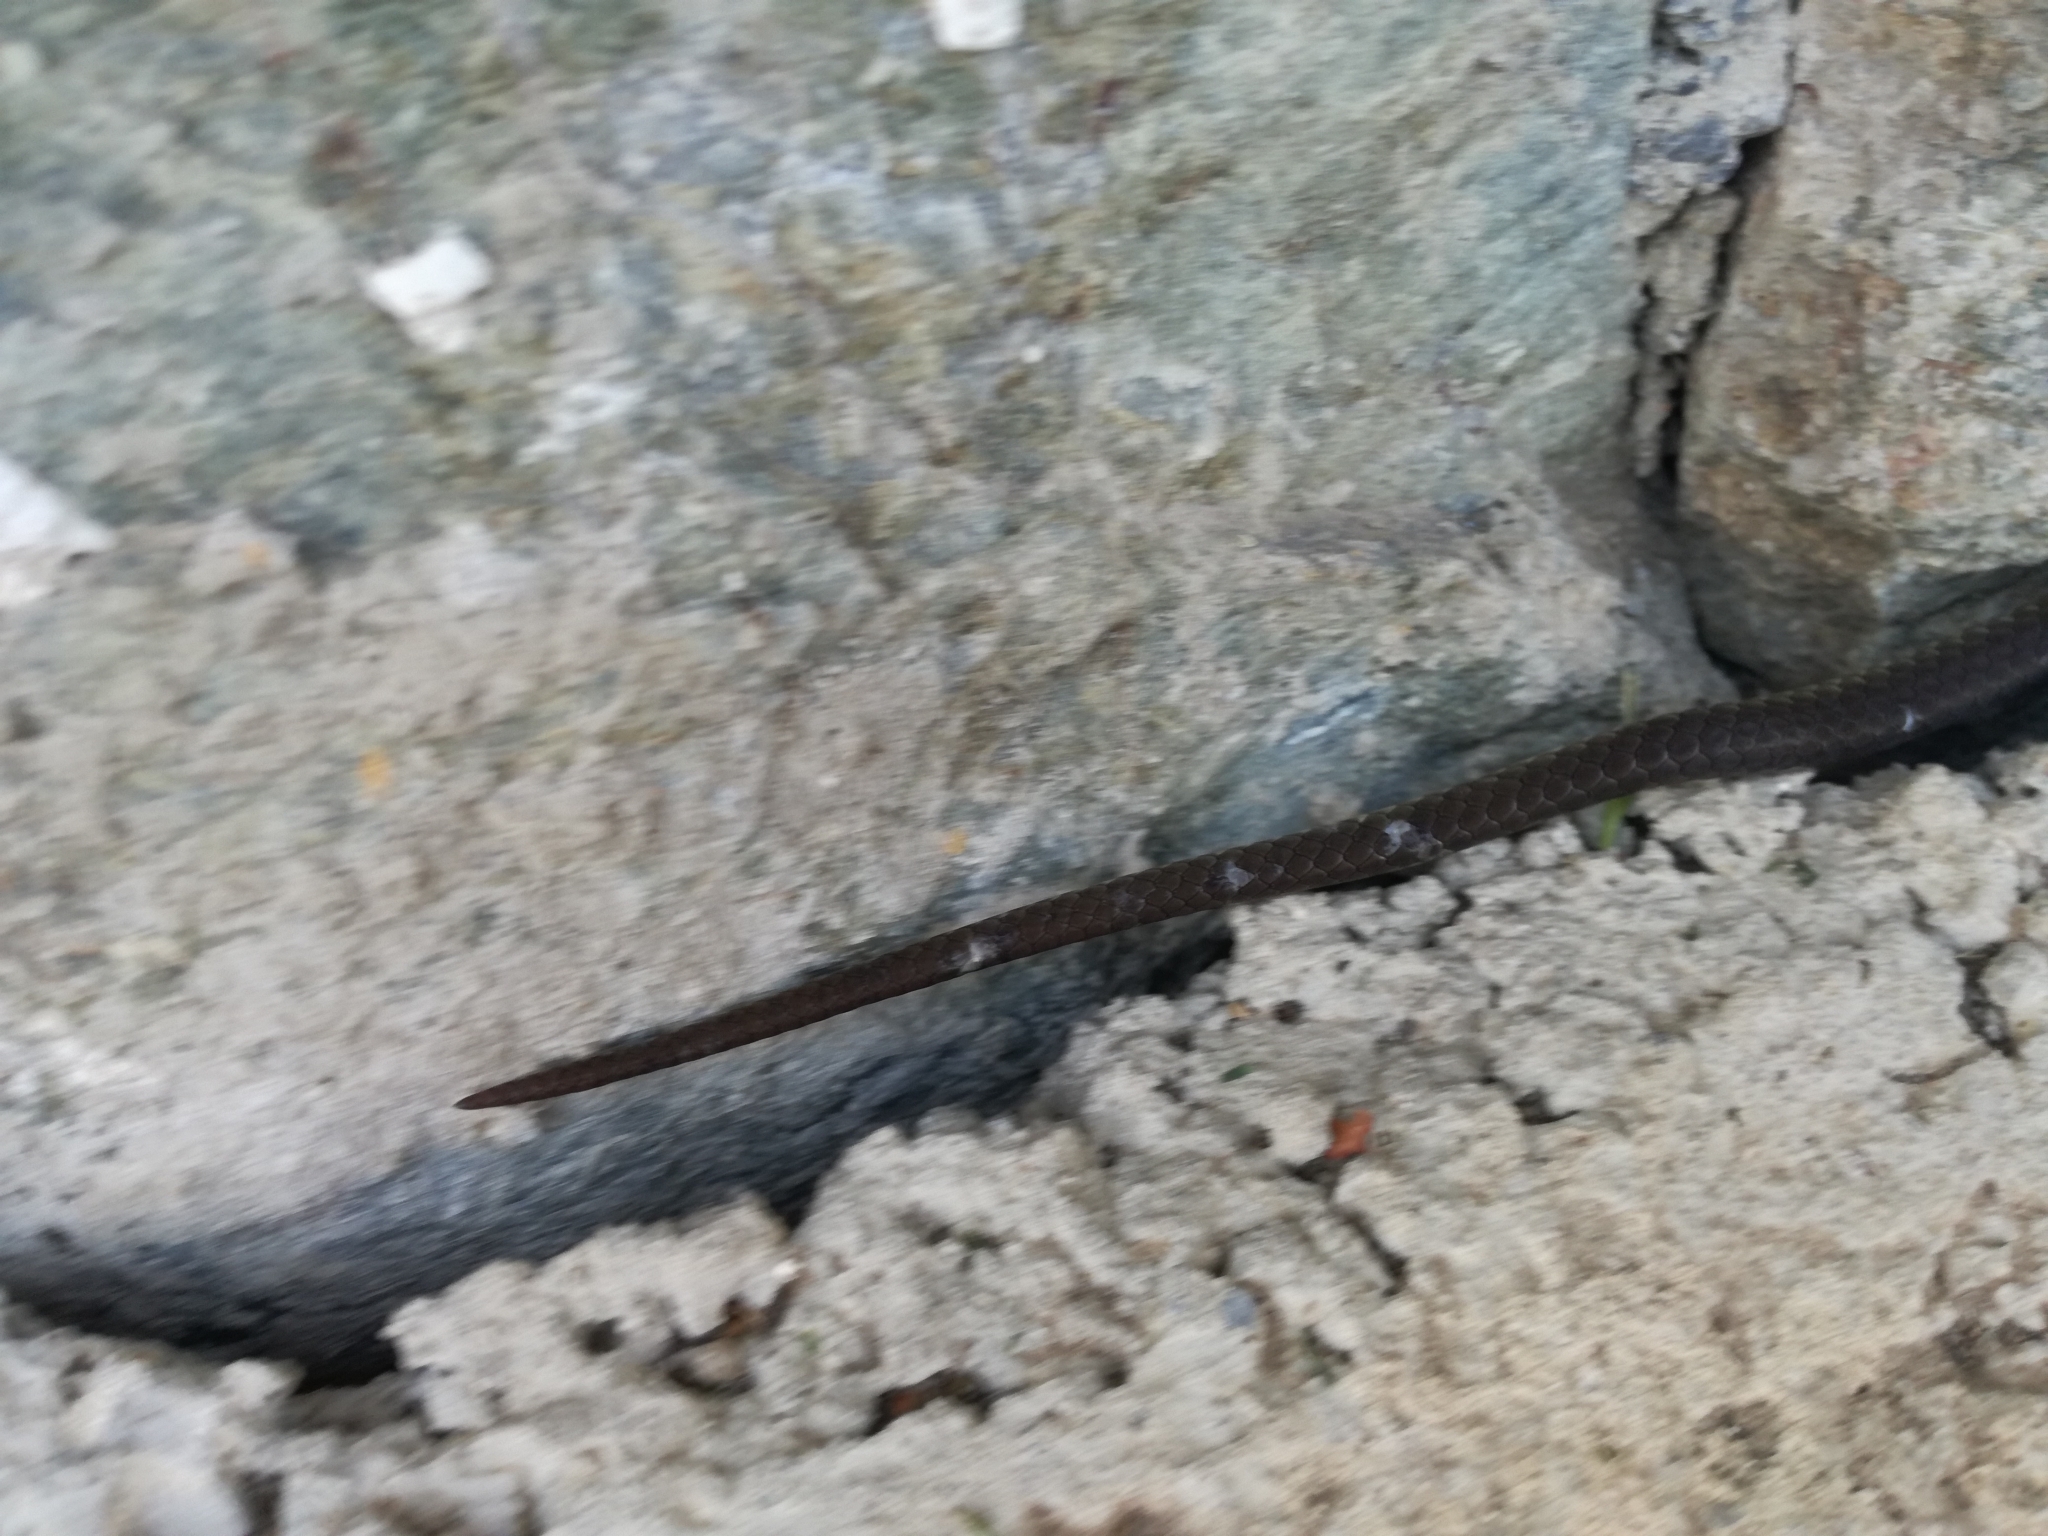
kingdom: Animalia
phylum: Chordata
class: Squamata
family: Colubridae
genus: Zamenis
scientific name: Zamenis longissimus
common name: Aesculapean snake
